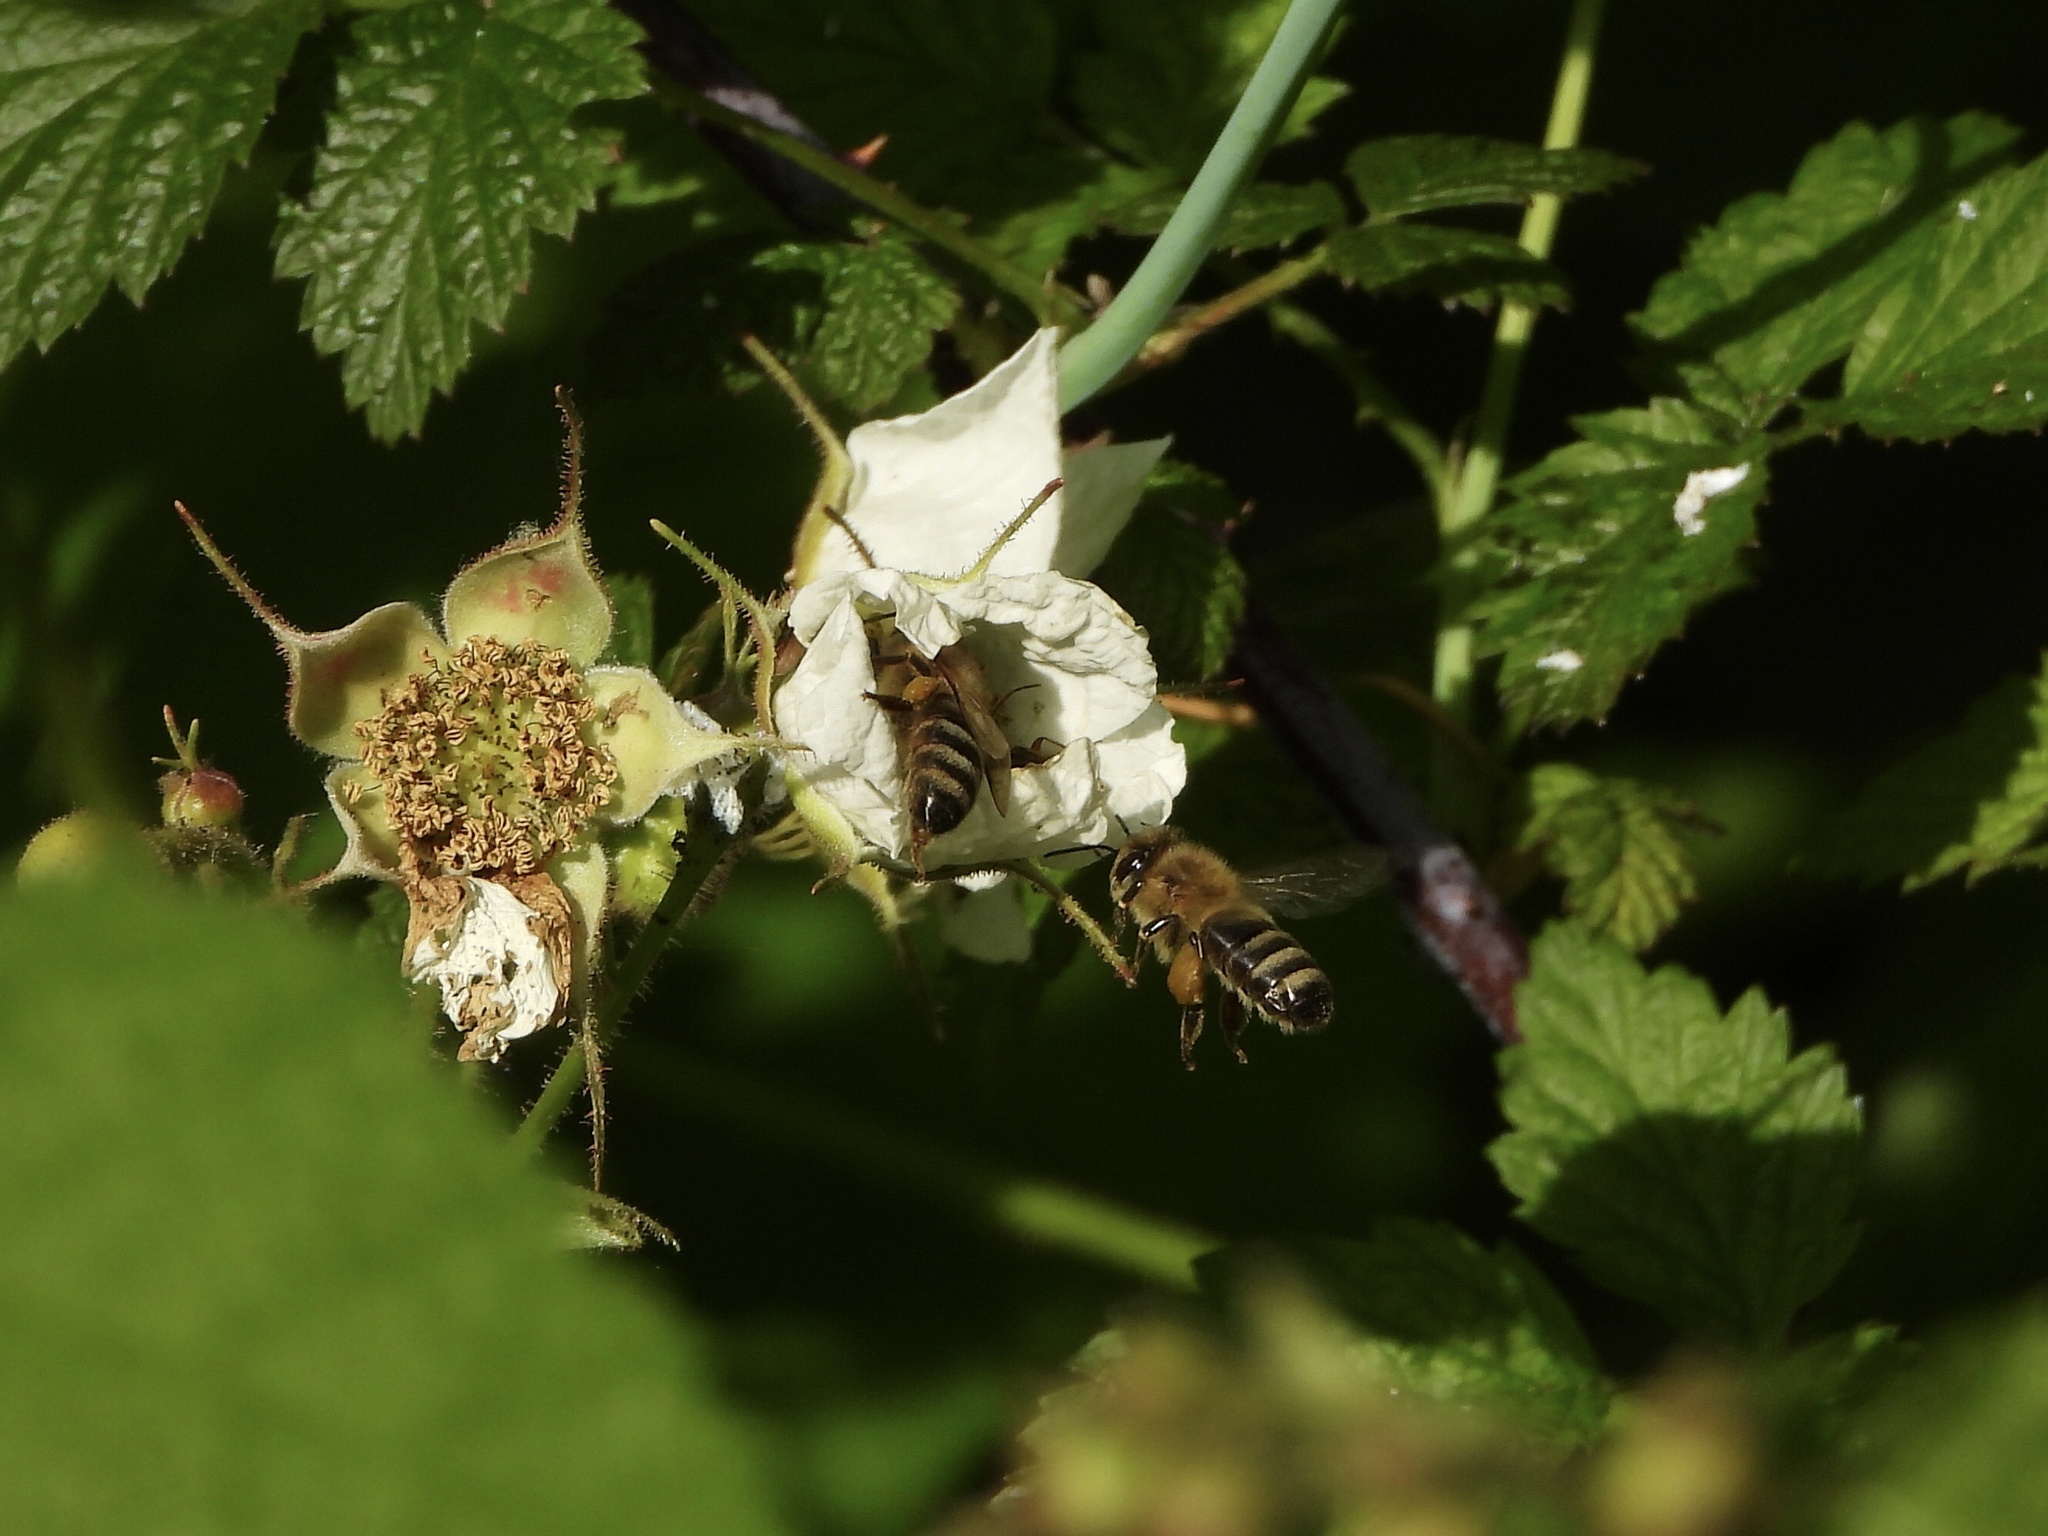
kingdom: Animalia
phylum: Arthropoda
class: Insecta
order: Hymenoptera
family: Apidae
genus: Apis
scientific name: Apis mellifera
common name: Honey bee
